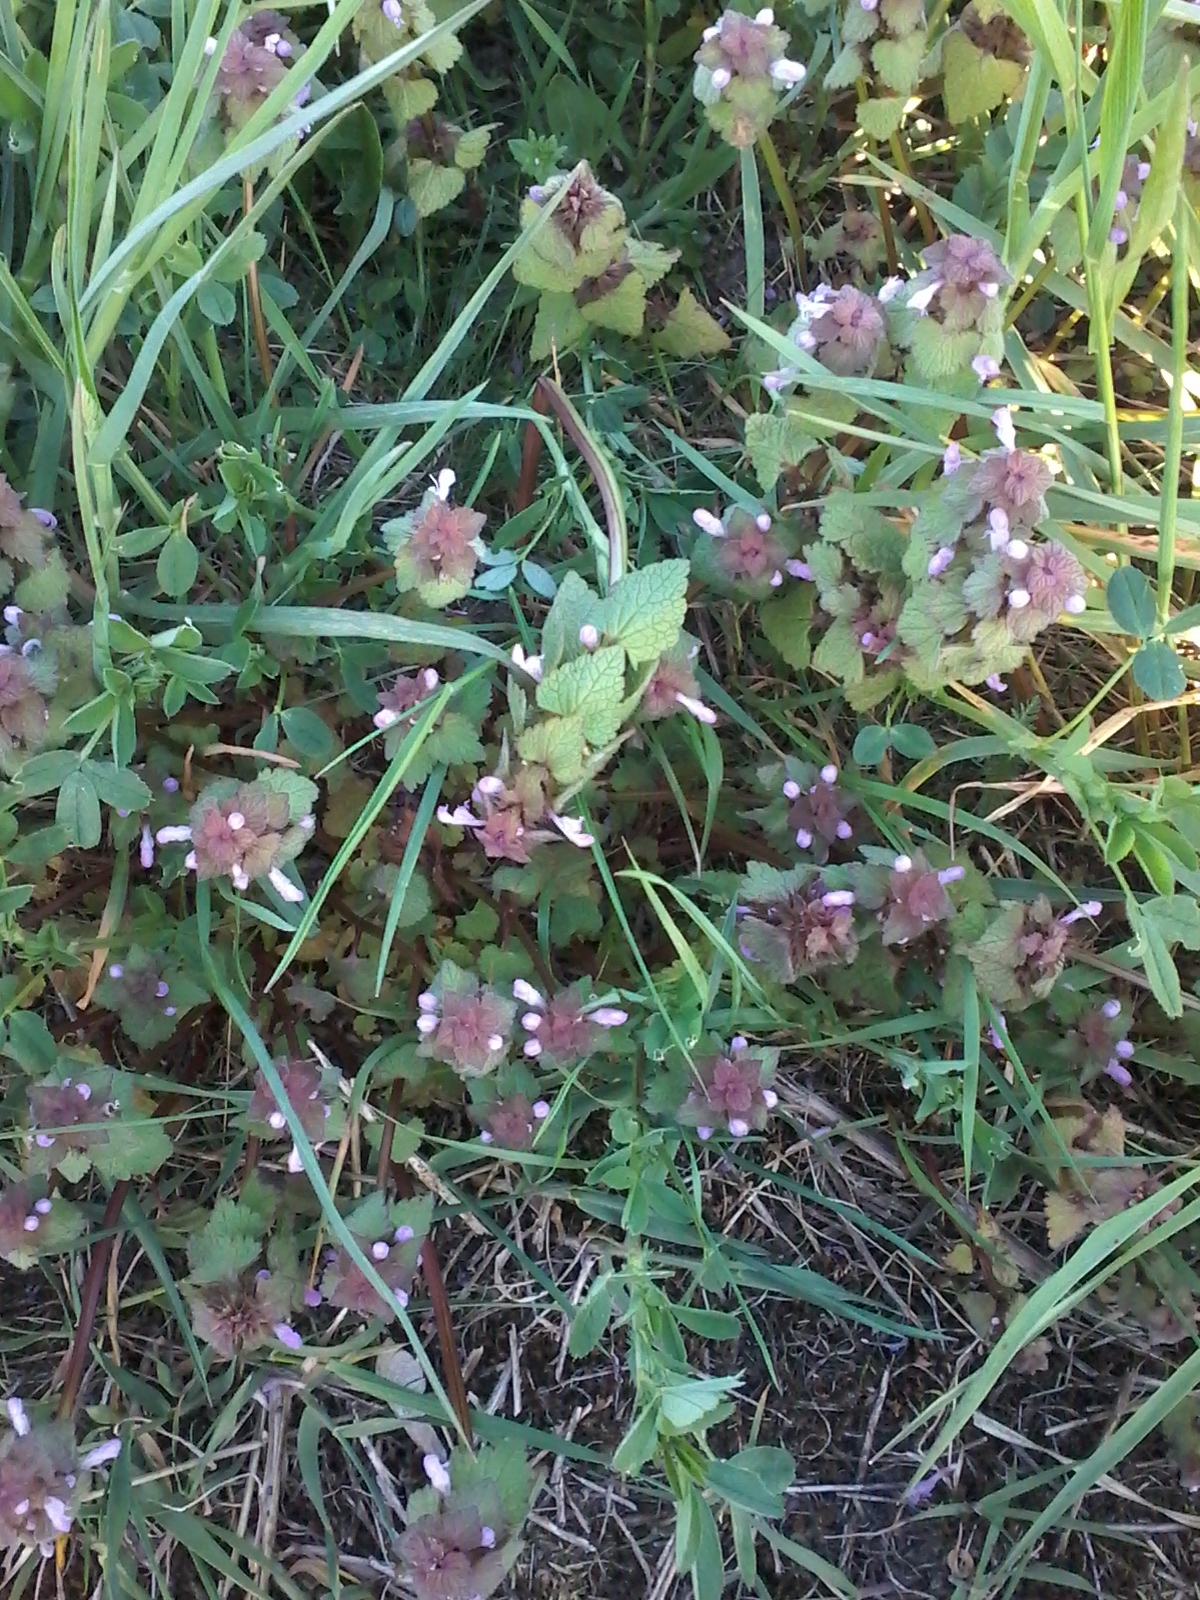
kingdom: Plantae
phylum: Tracheophyta
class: Magnoliopsida
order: Lamiales
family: Lamiaceae
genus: Lamium
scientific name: Lamium purpureum
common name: Red dead-nettle
